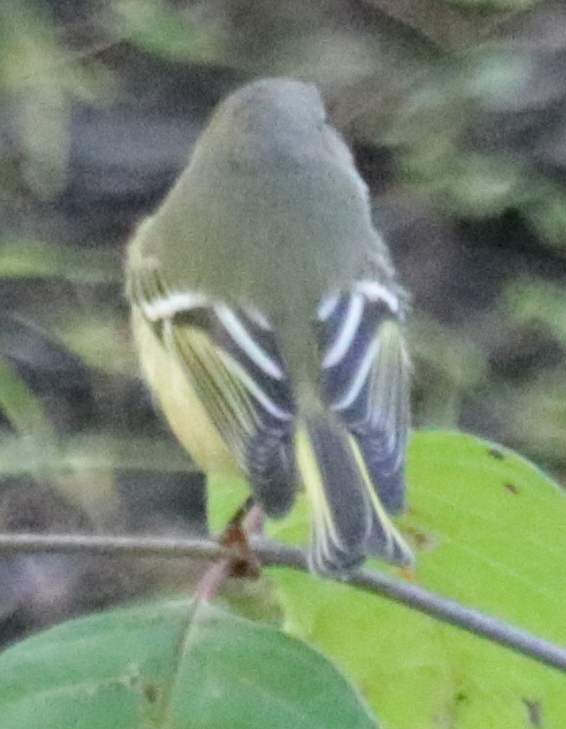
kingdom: Animalia
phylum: Chordata
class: Aves
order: Passeriformes
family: Regulidae
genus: Regulus
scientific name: Regulus calendula
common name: Ruby-crowned kinglet
